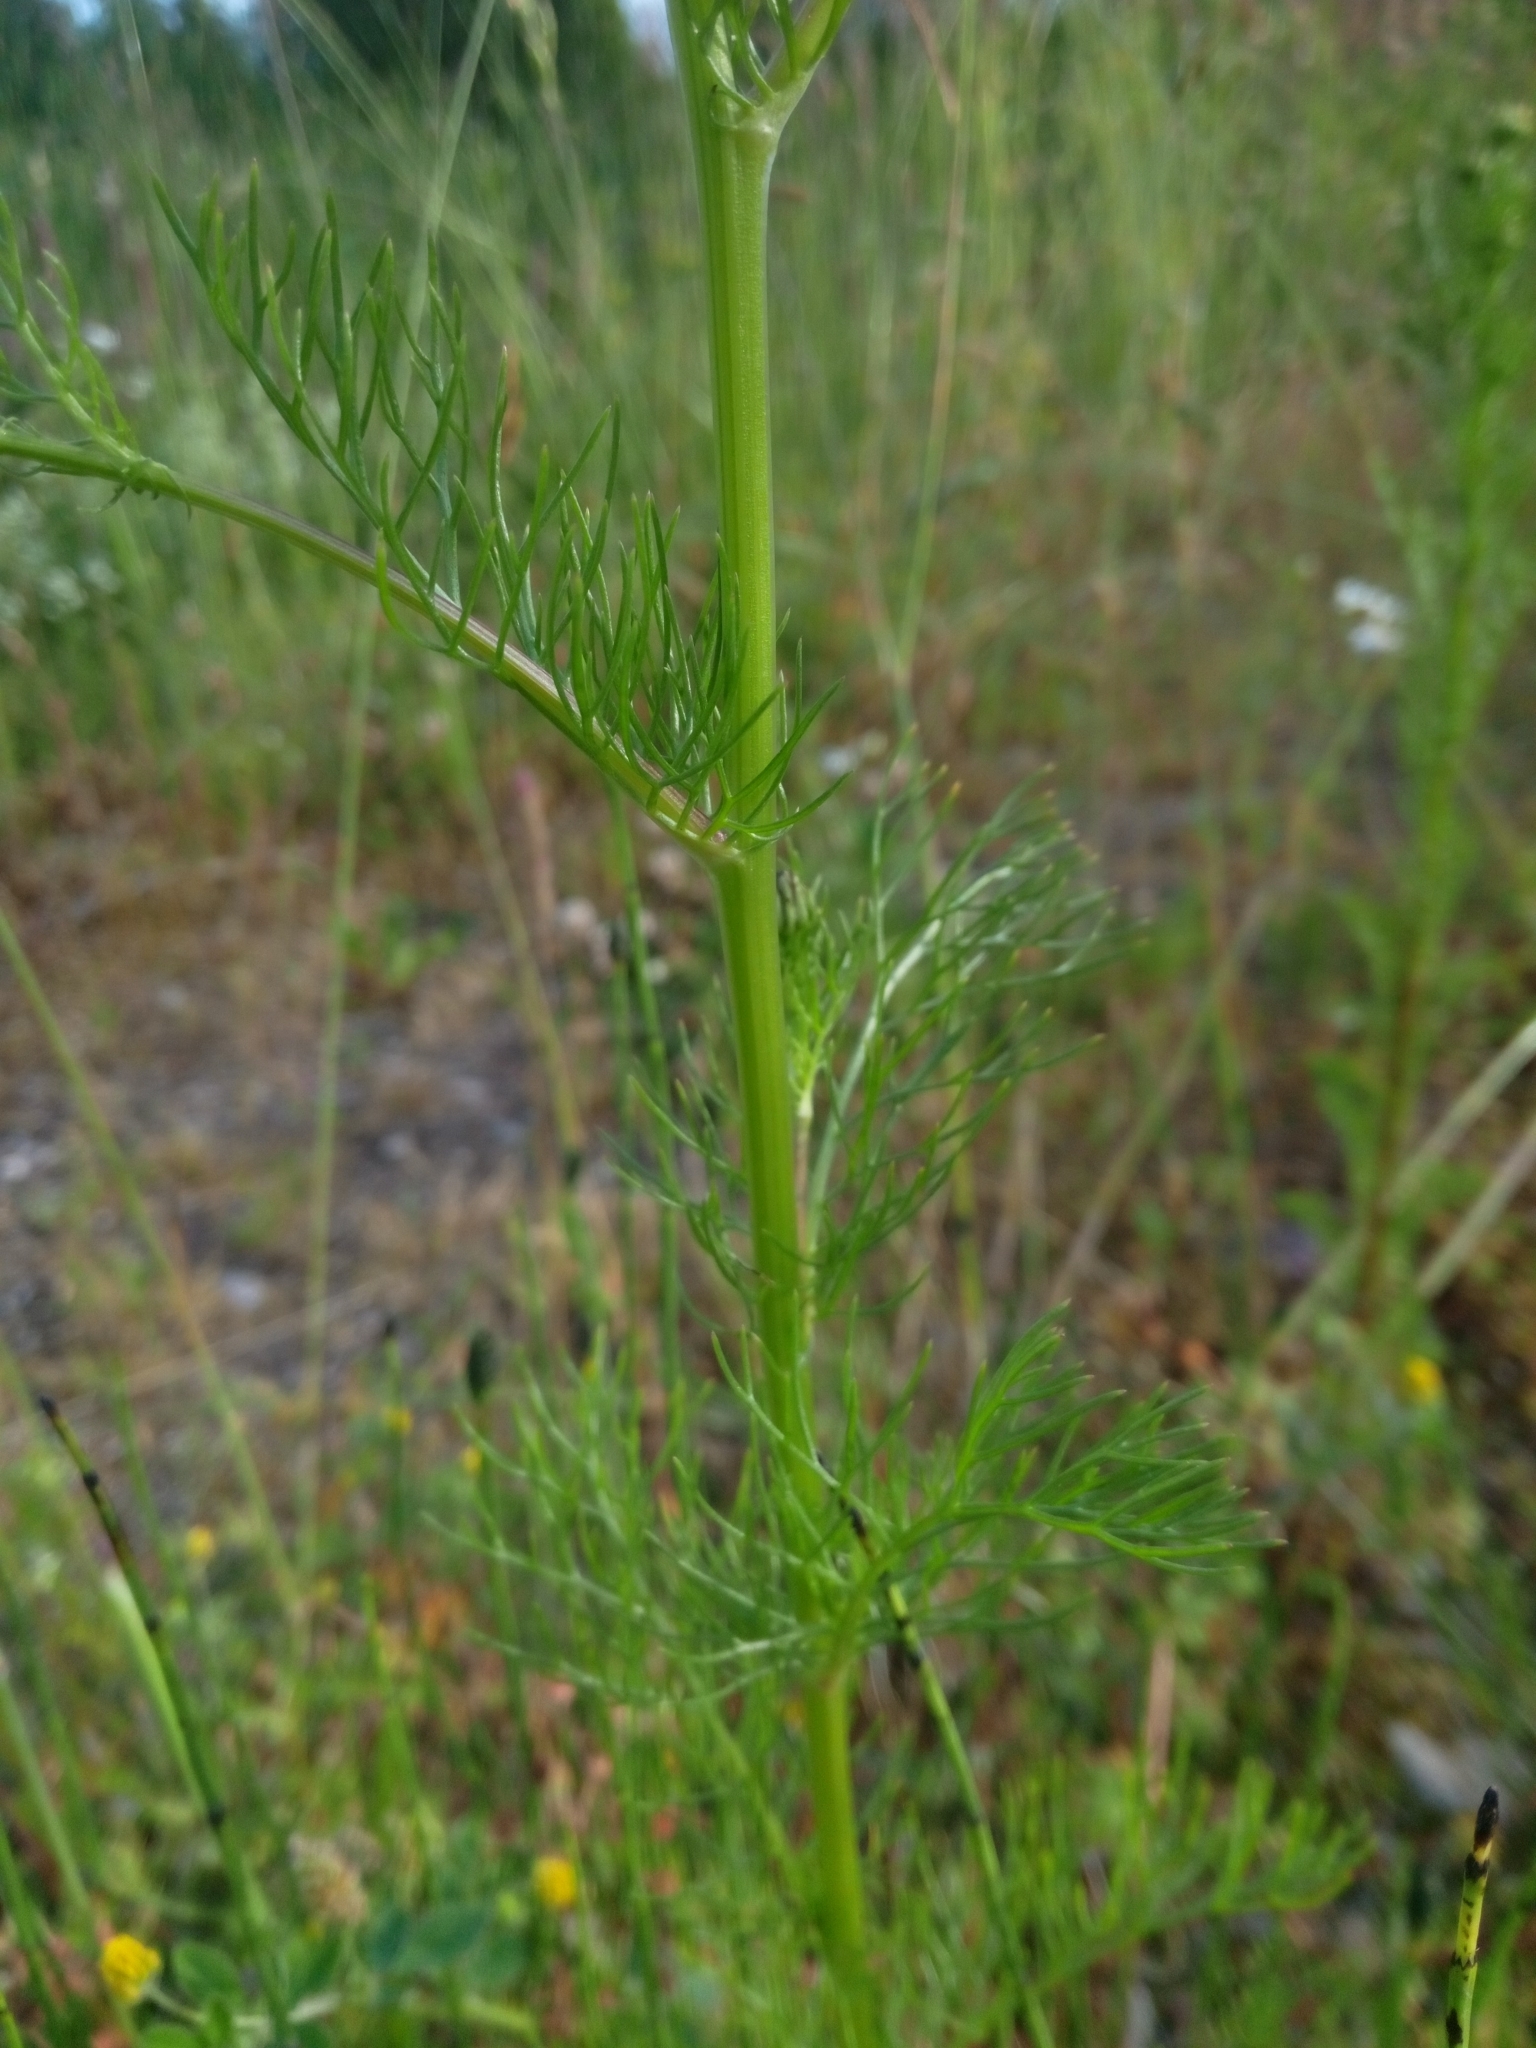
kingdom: Plantae
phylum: Tracheophyta
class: Magnoliopsida
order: Asterales
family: Asteraceae
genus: Tripleurospermum
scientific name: Tripleurospermum inodorum
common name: Scentless mayweed
